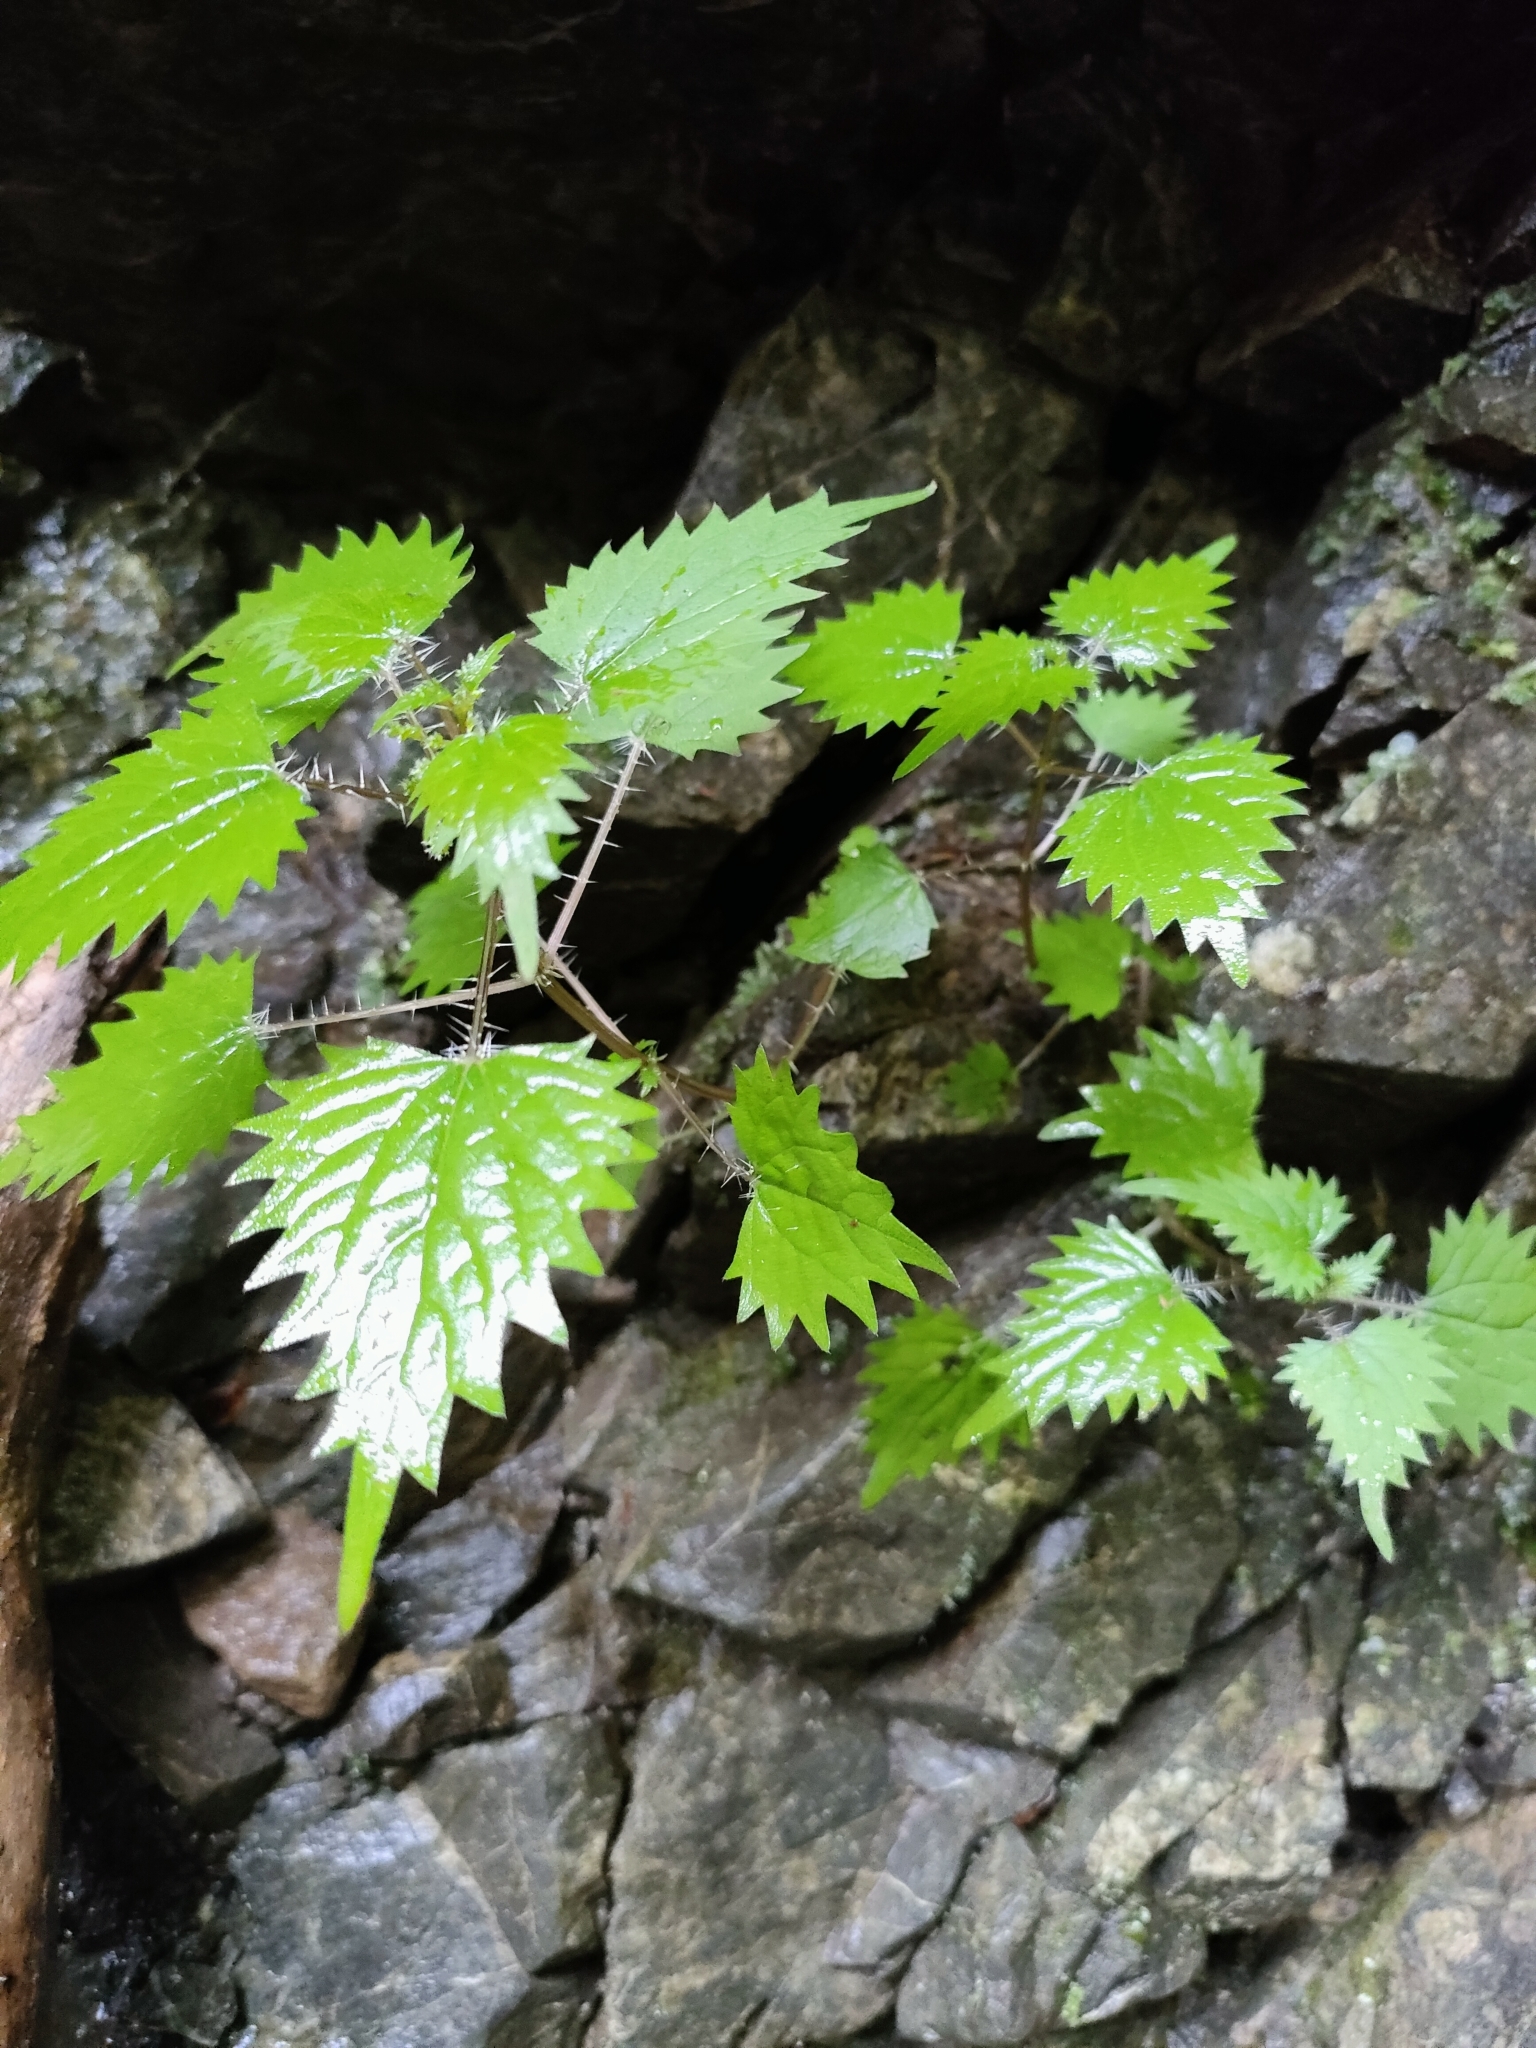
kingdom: Plantae
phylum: Tracheophyta
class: Magnoliopsida
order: Rosales
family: Urticaceae
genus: Urtica
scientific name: Urtica sykesii
